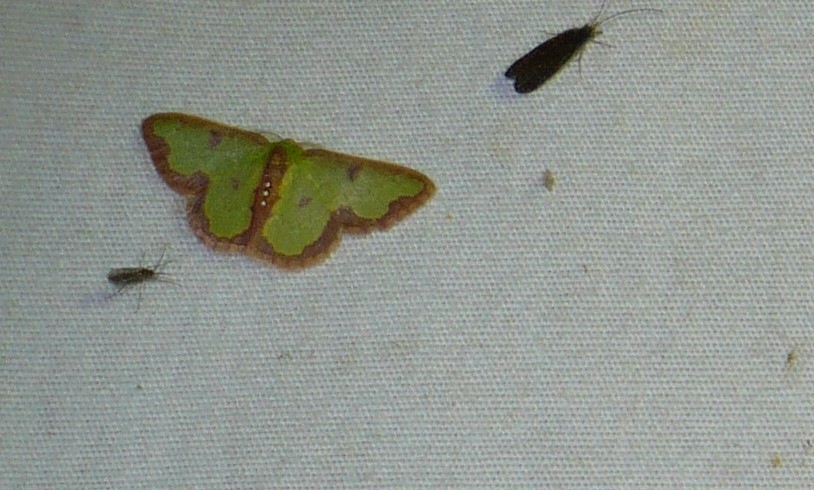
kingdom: Animalia
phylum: Arthropoda
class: Insecta
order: Lepidoptera
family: Geometridae
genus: Synchlora
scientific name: Synchlora dependens
